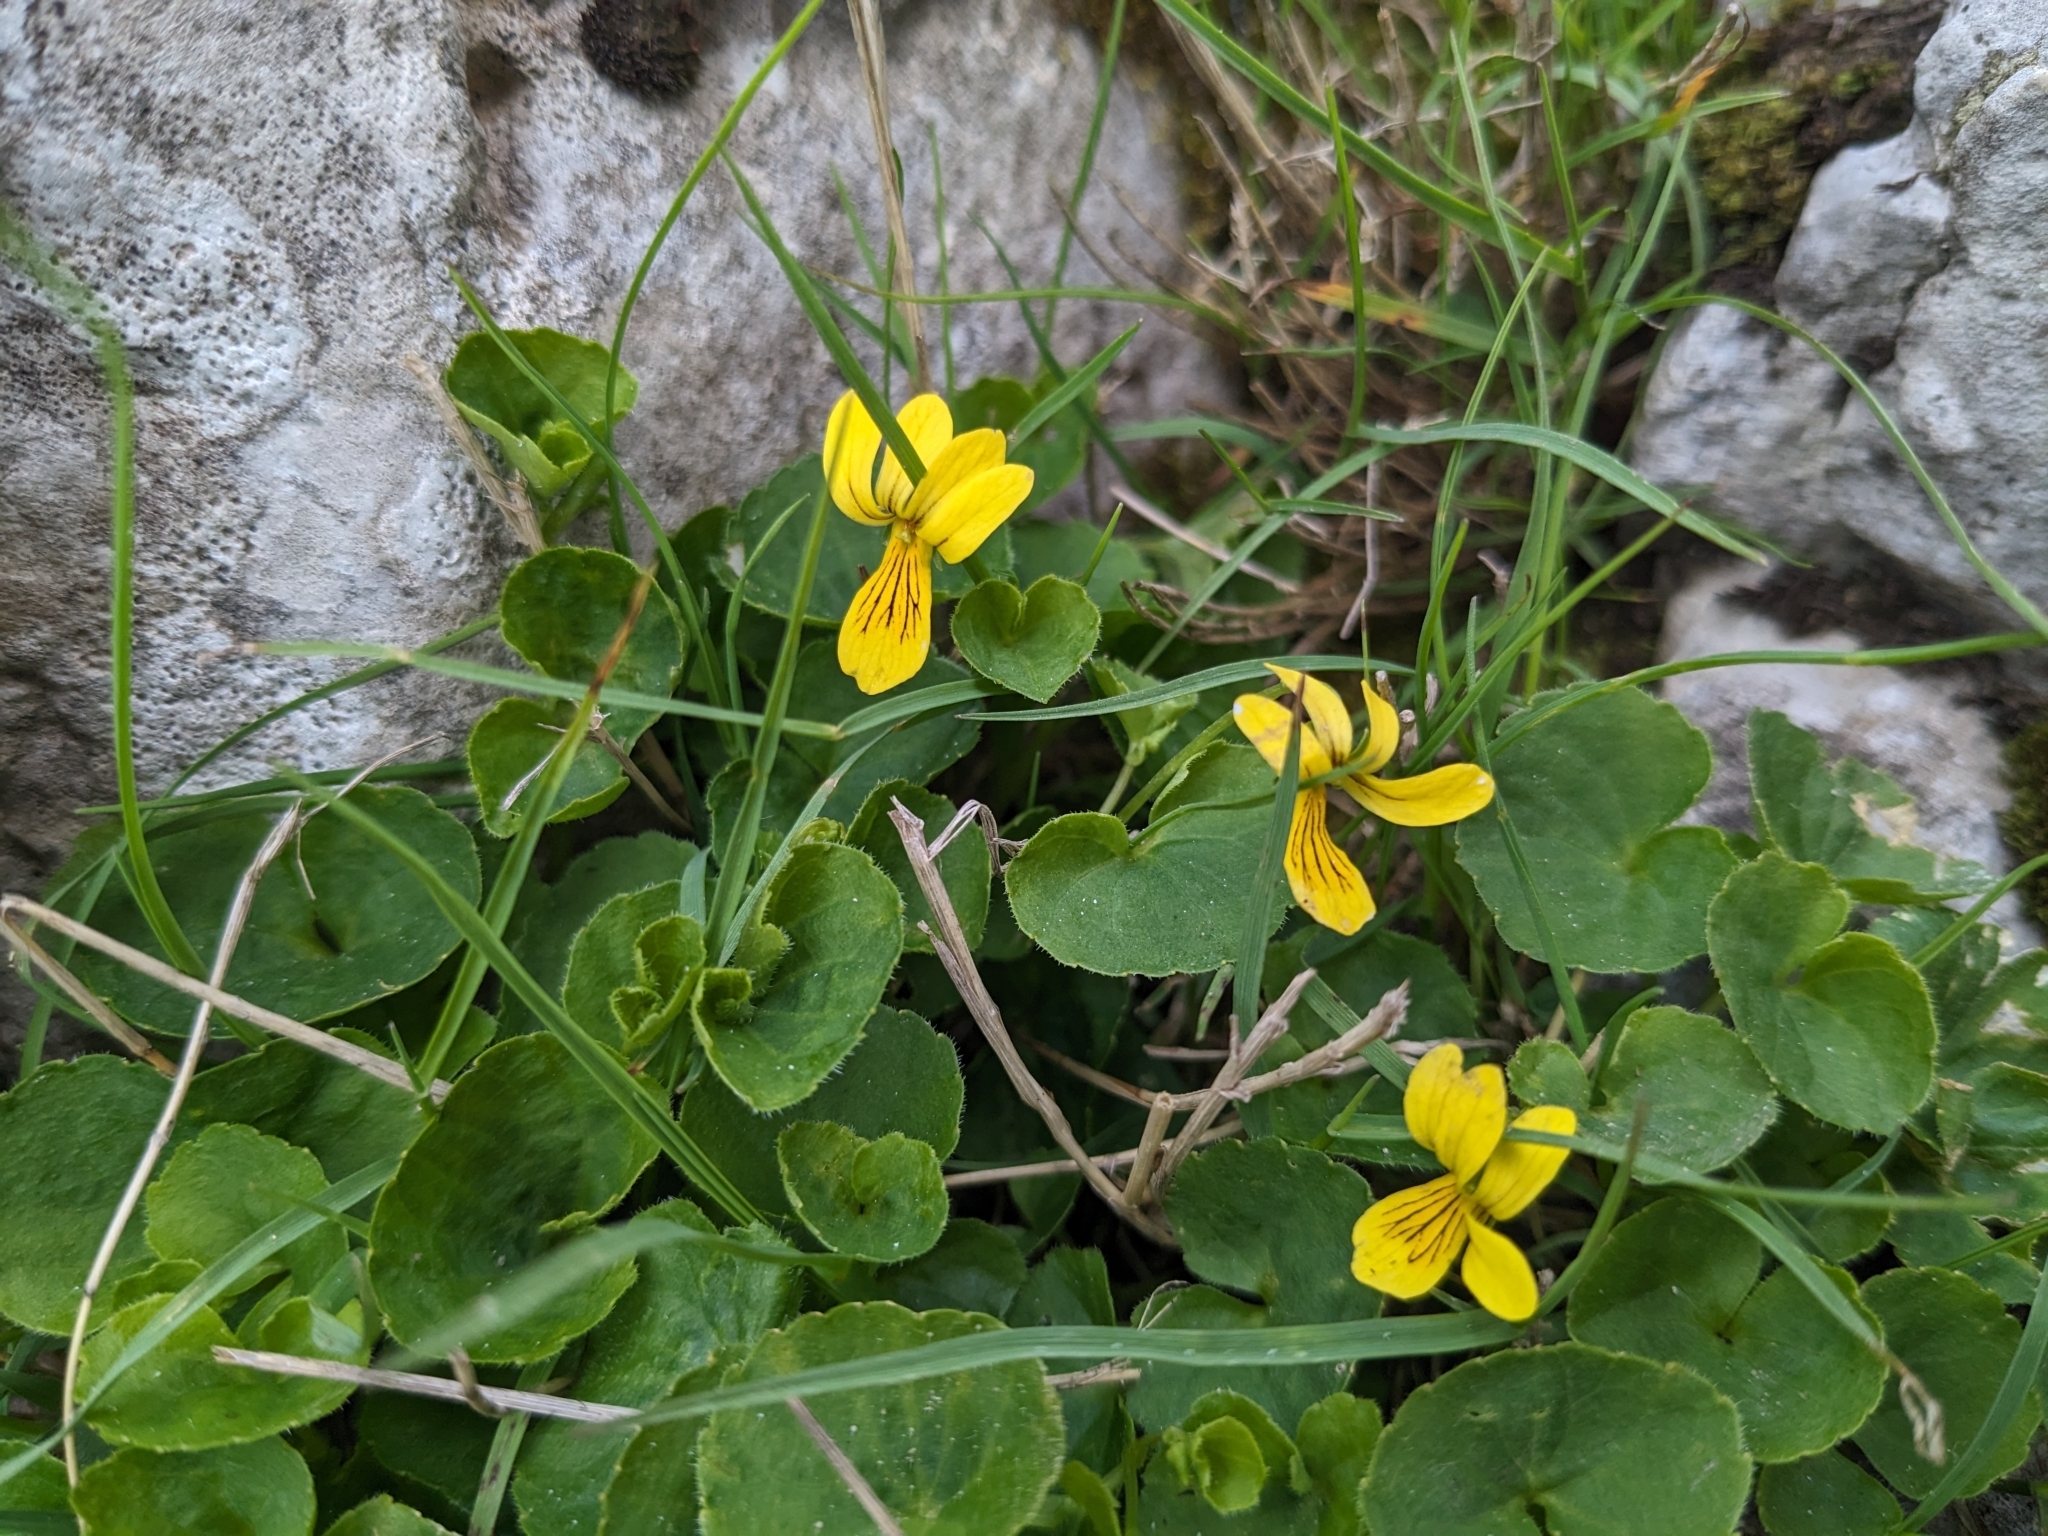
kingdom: Plantae
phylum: Tracheophyta
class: Magnoliopsida
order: Malpighiales
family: Violaceae
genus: Viola
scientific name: Viola biflora
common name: Alpine yellow violet
